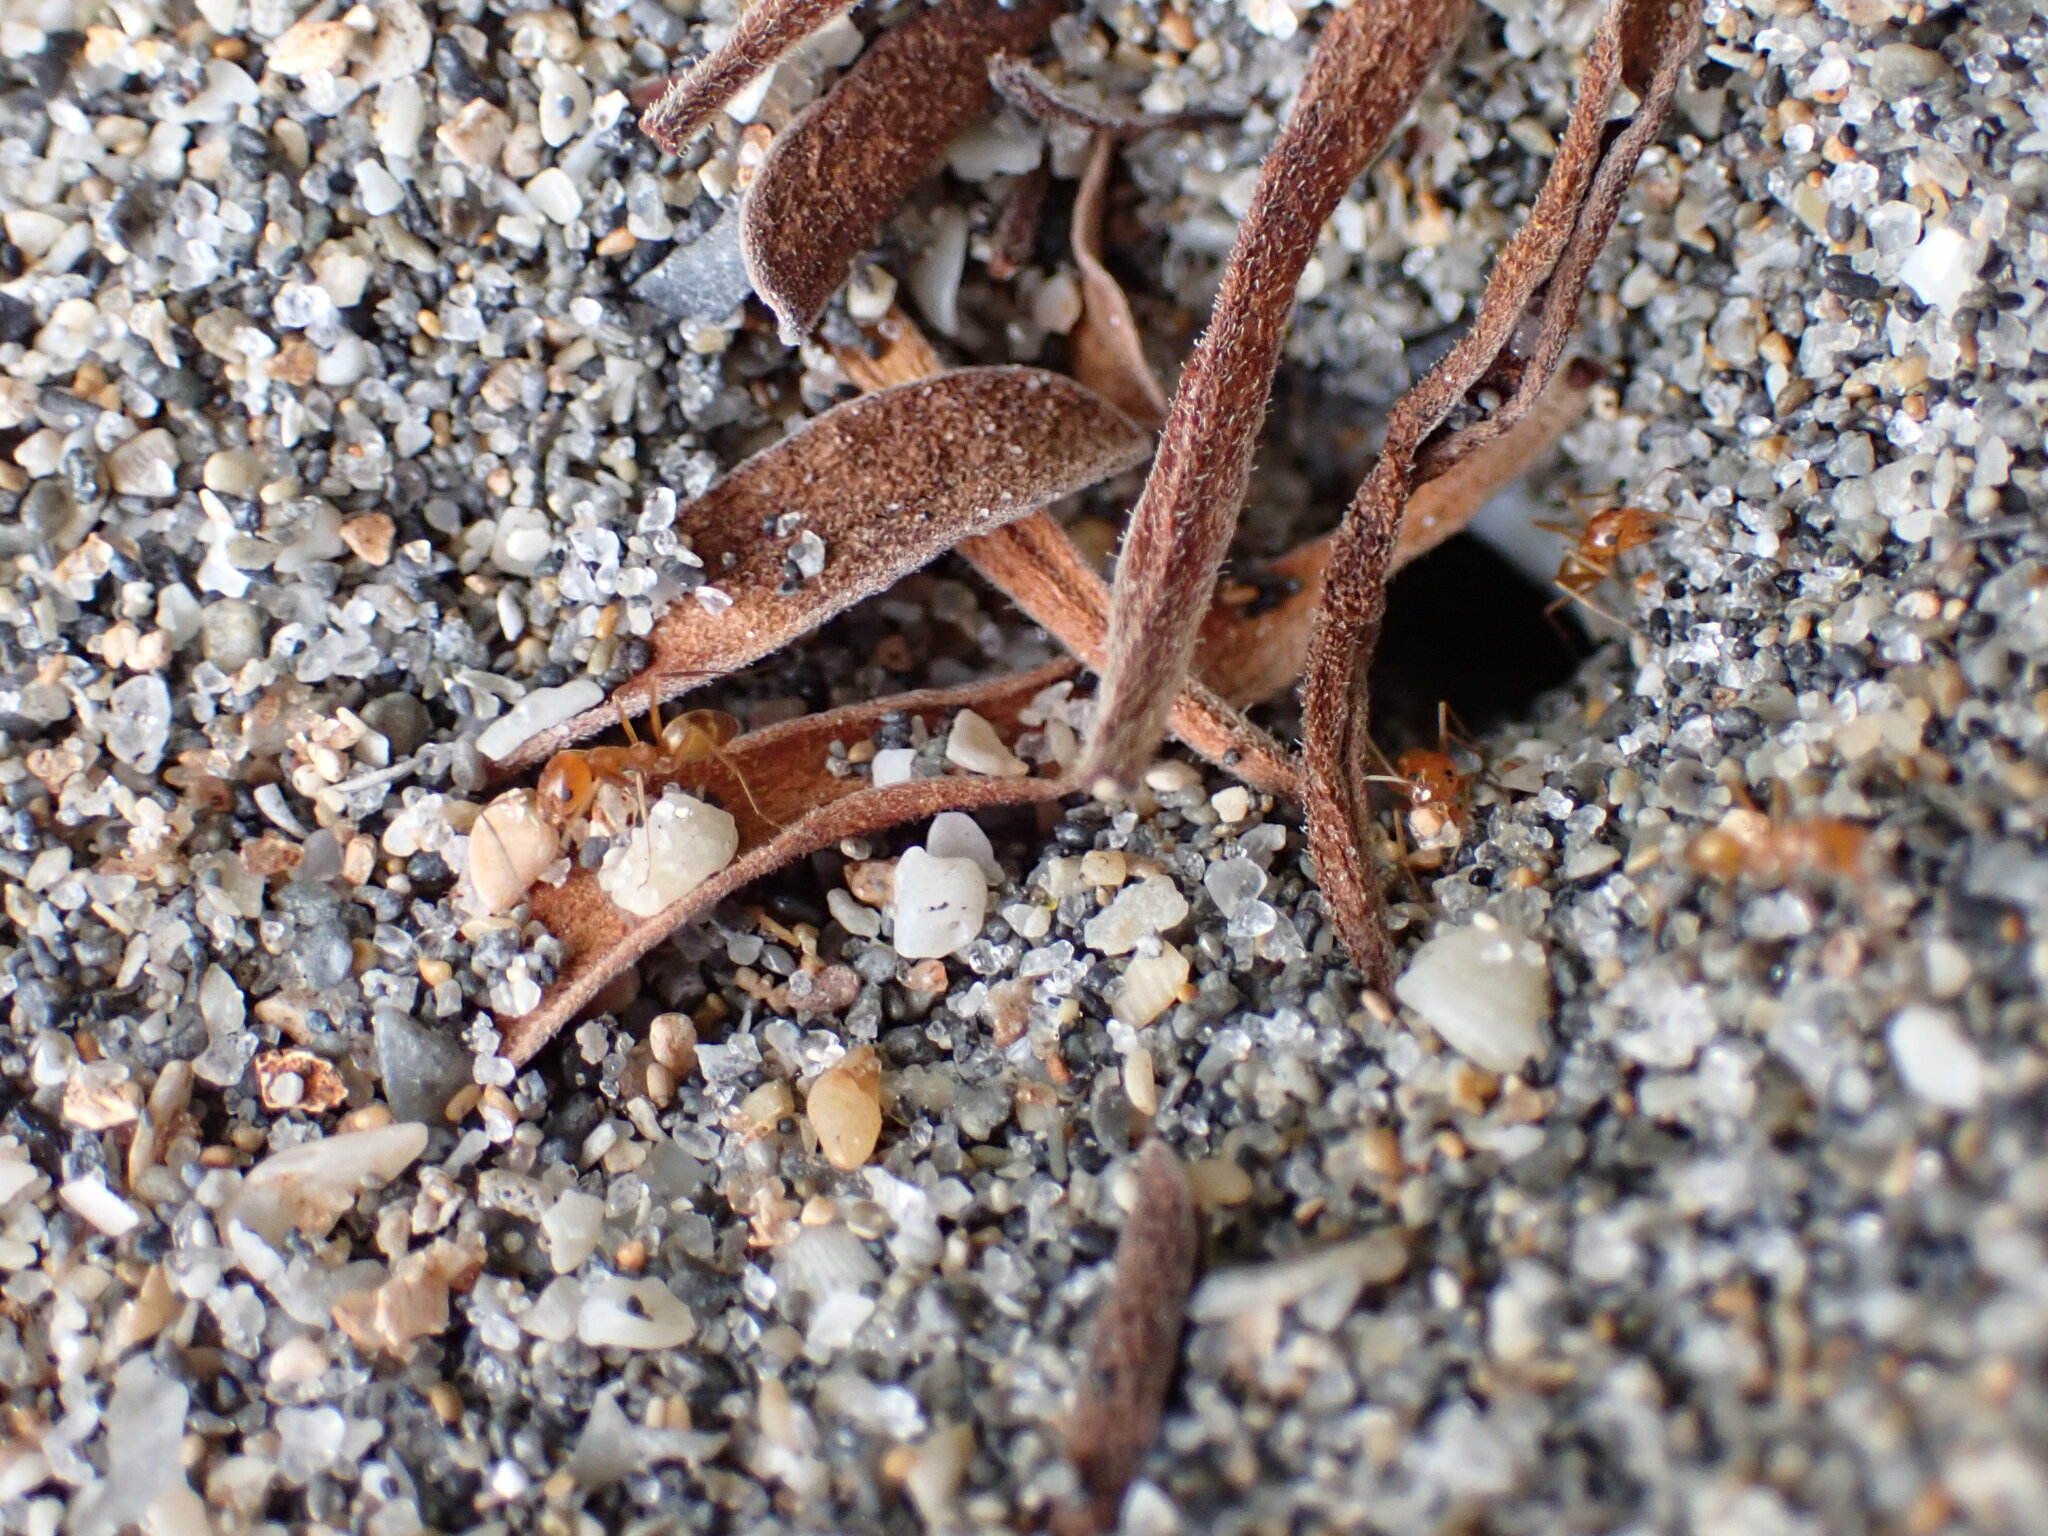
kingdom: Animalia
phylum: Arthropoda
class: Insecta
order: Hymenoptera
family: Formicidae
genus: Dorymyrmex
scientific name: Dorymyrmex bureni
